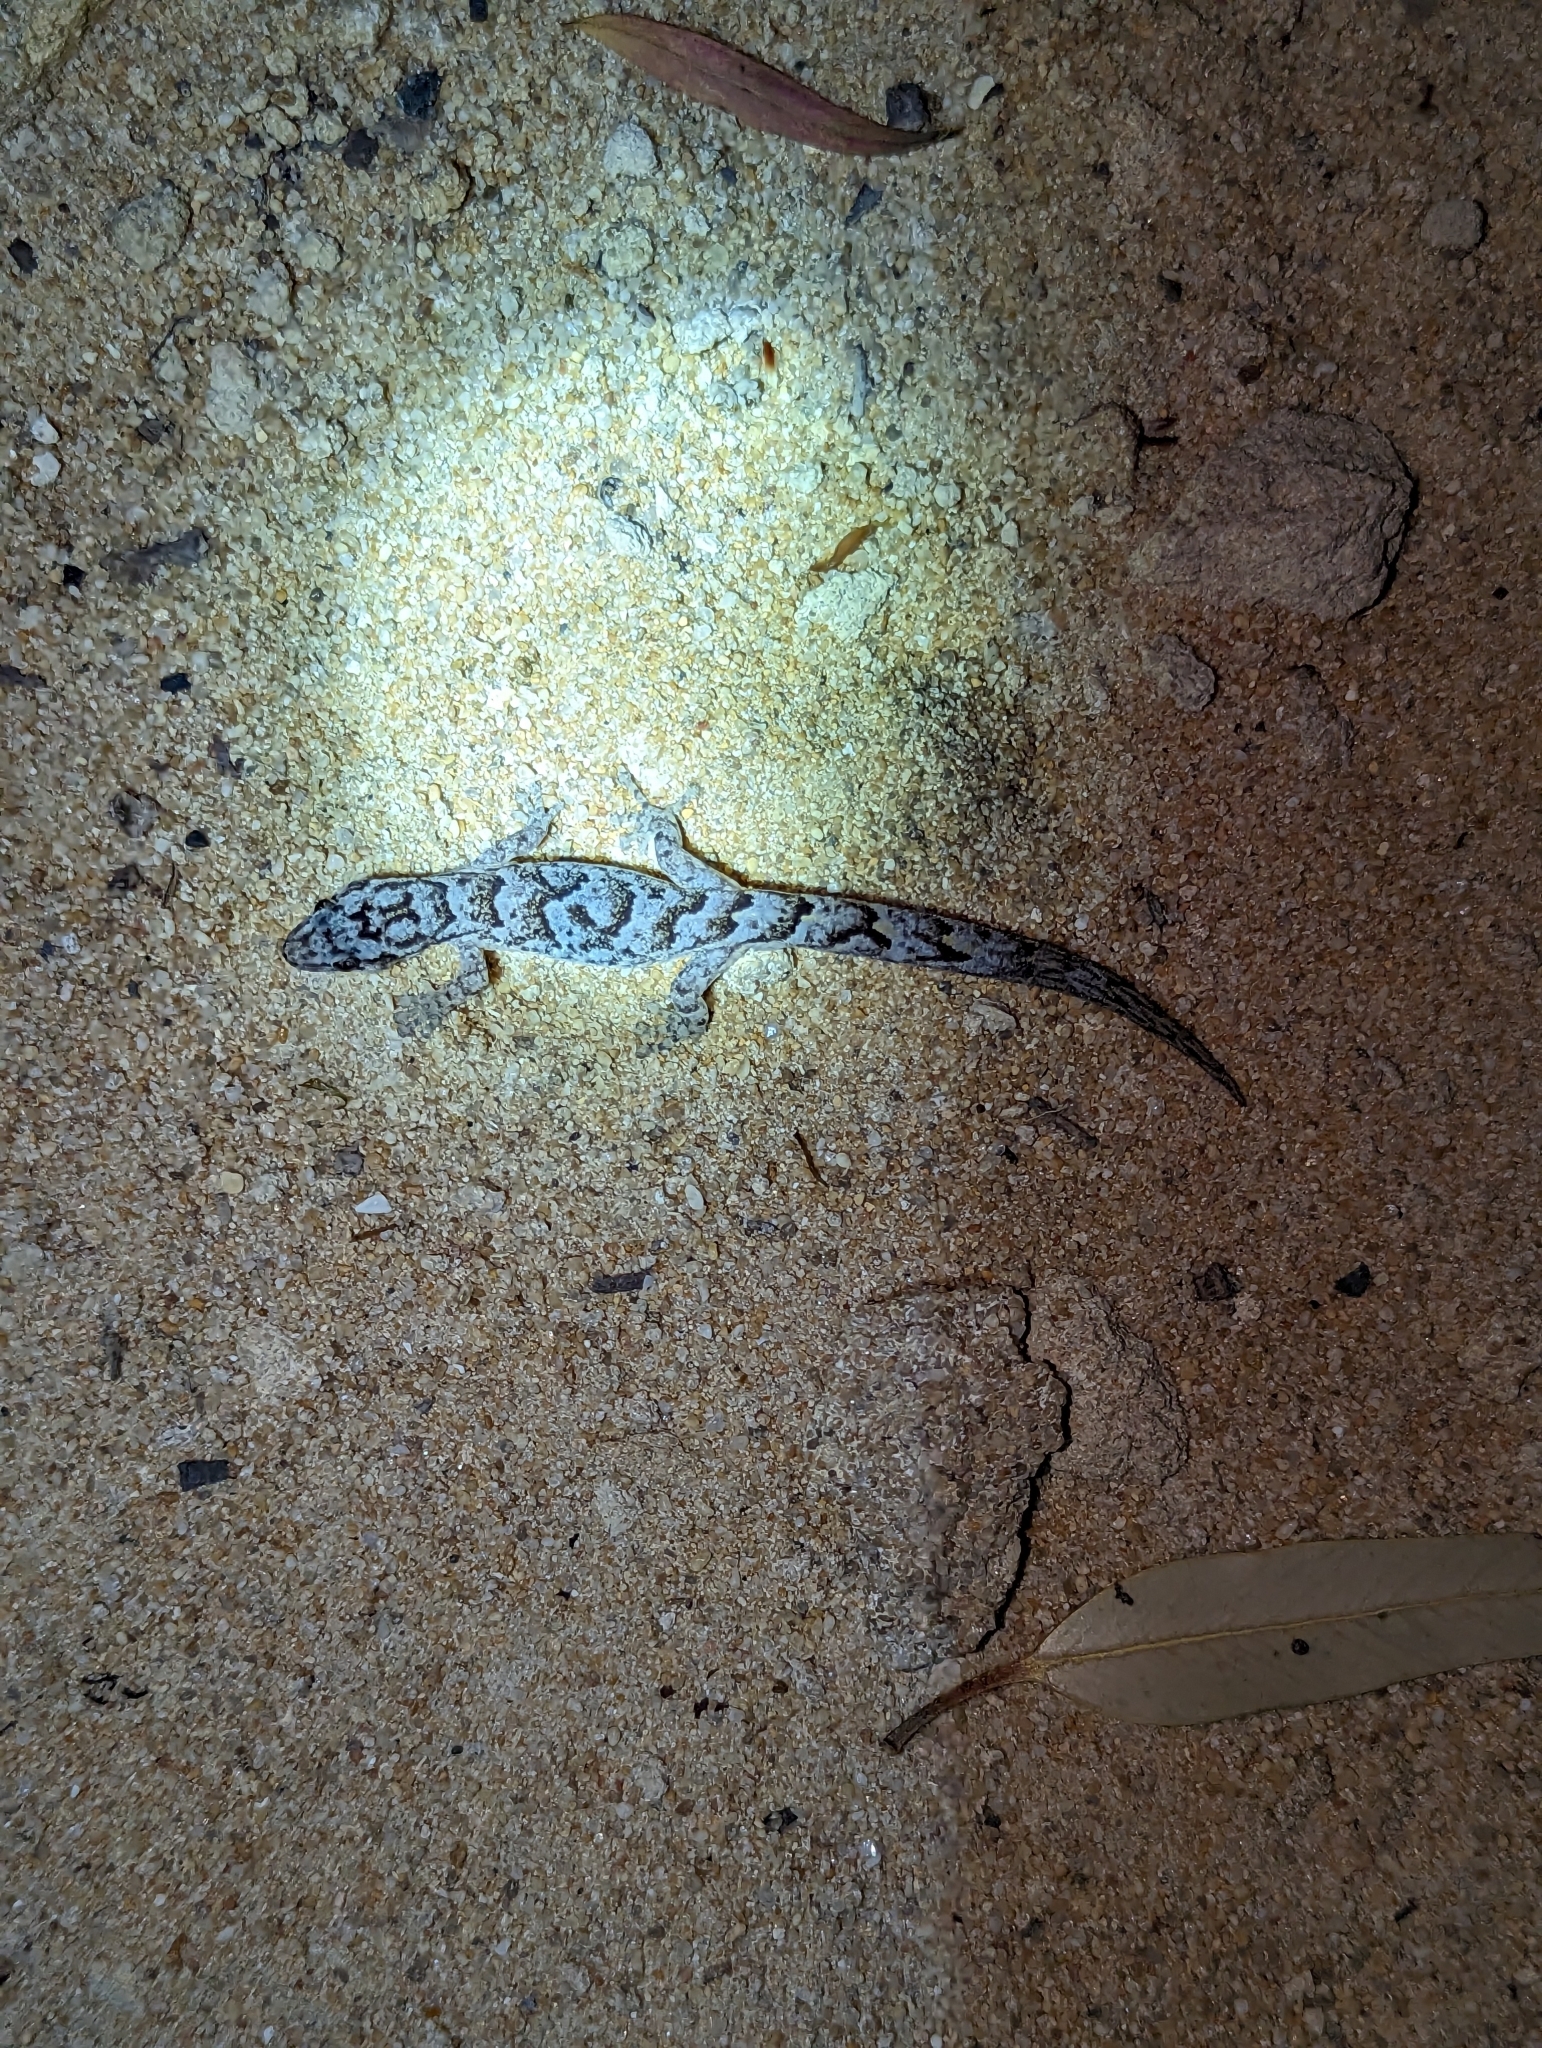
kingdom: Animalia
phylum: Chordata
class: Squamata
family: Gekkonidae
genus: Christinus
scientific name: Christinus marmoratus
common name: Marbled gecko
